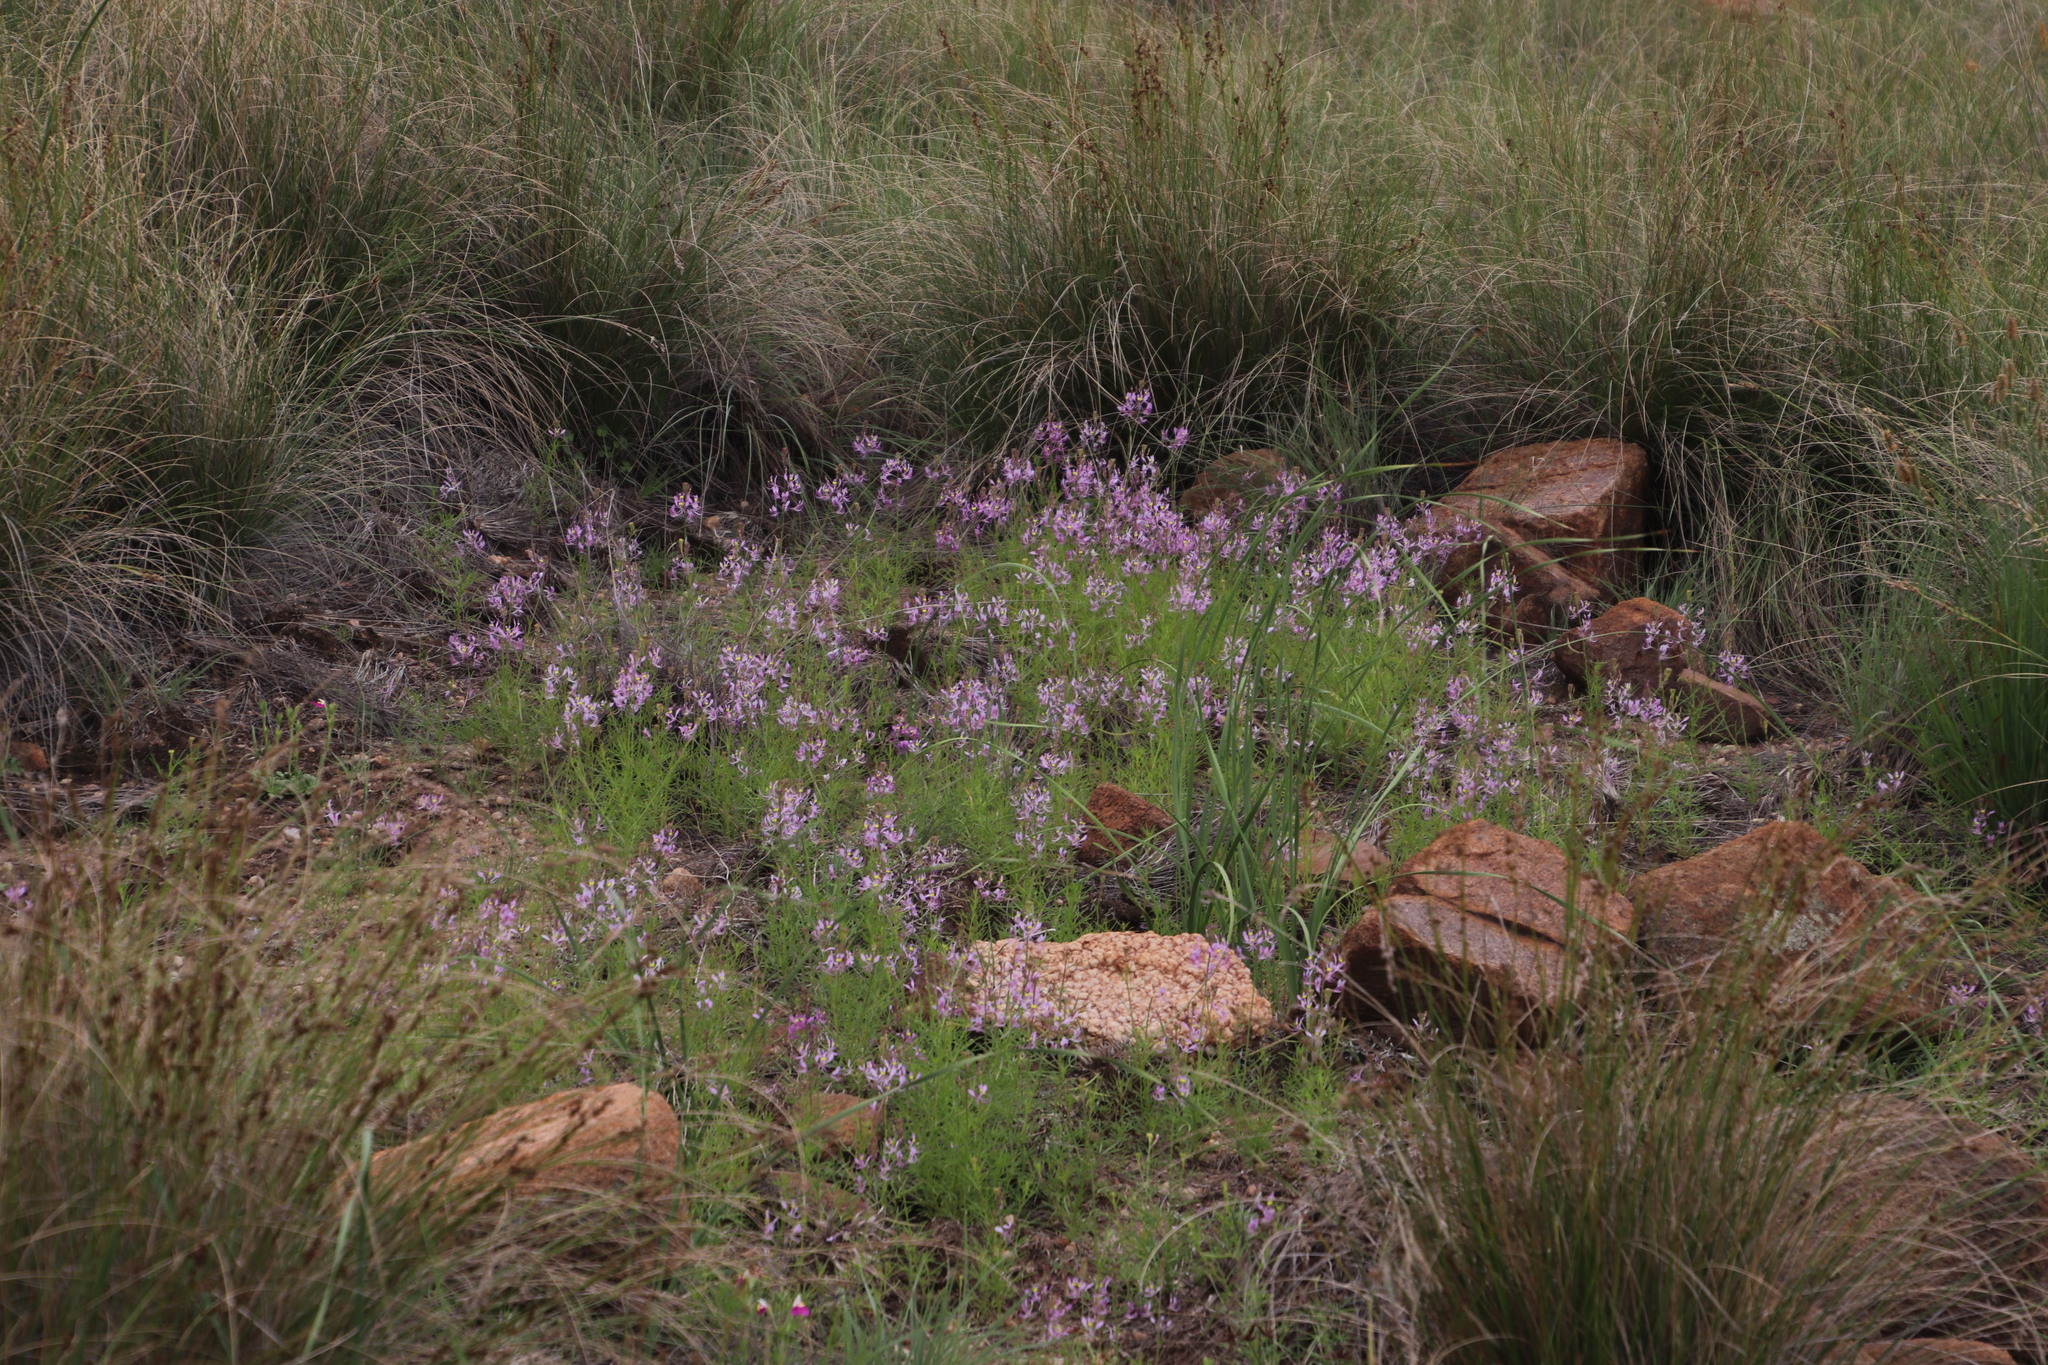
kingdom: Plantae
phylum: Tracheophyta
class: Magnoliopsida
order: Brassicales
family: Cleomaceae
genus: Sieruela
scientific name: Sieruela maculata
